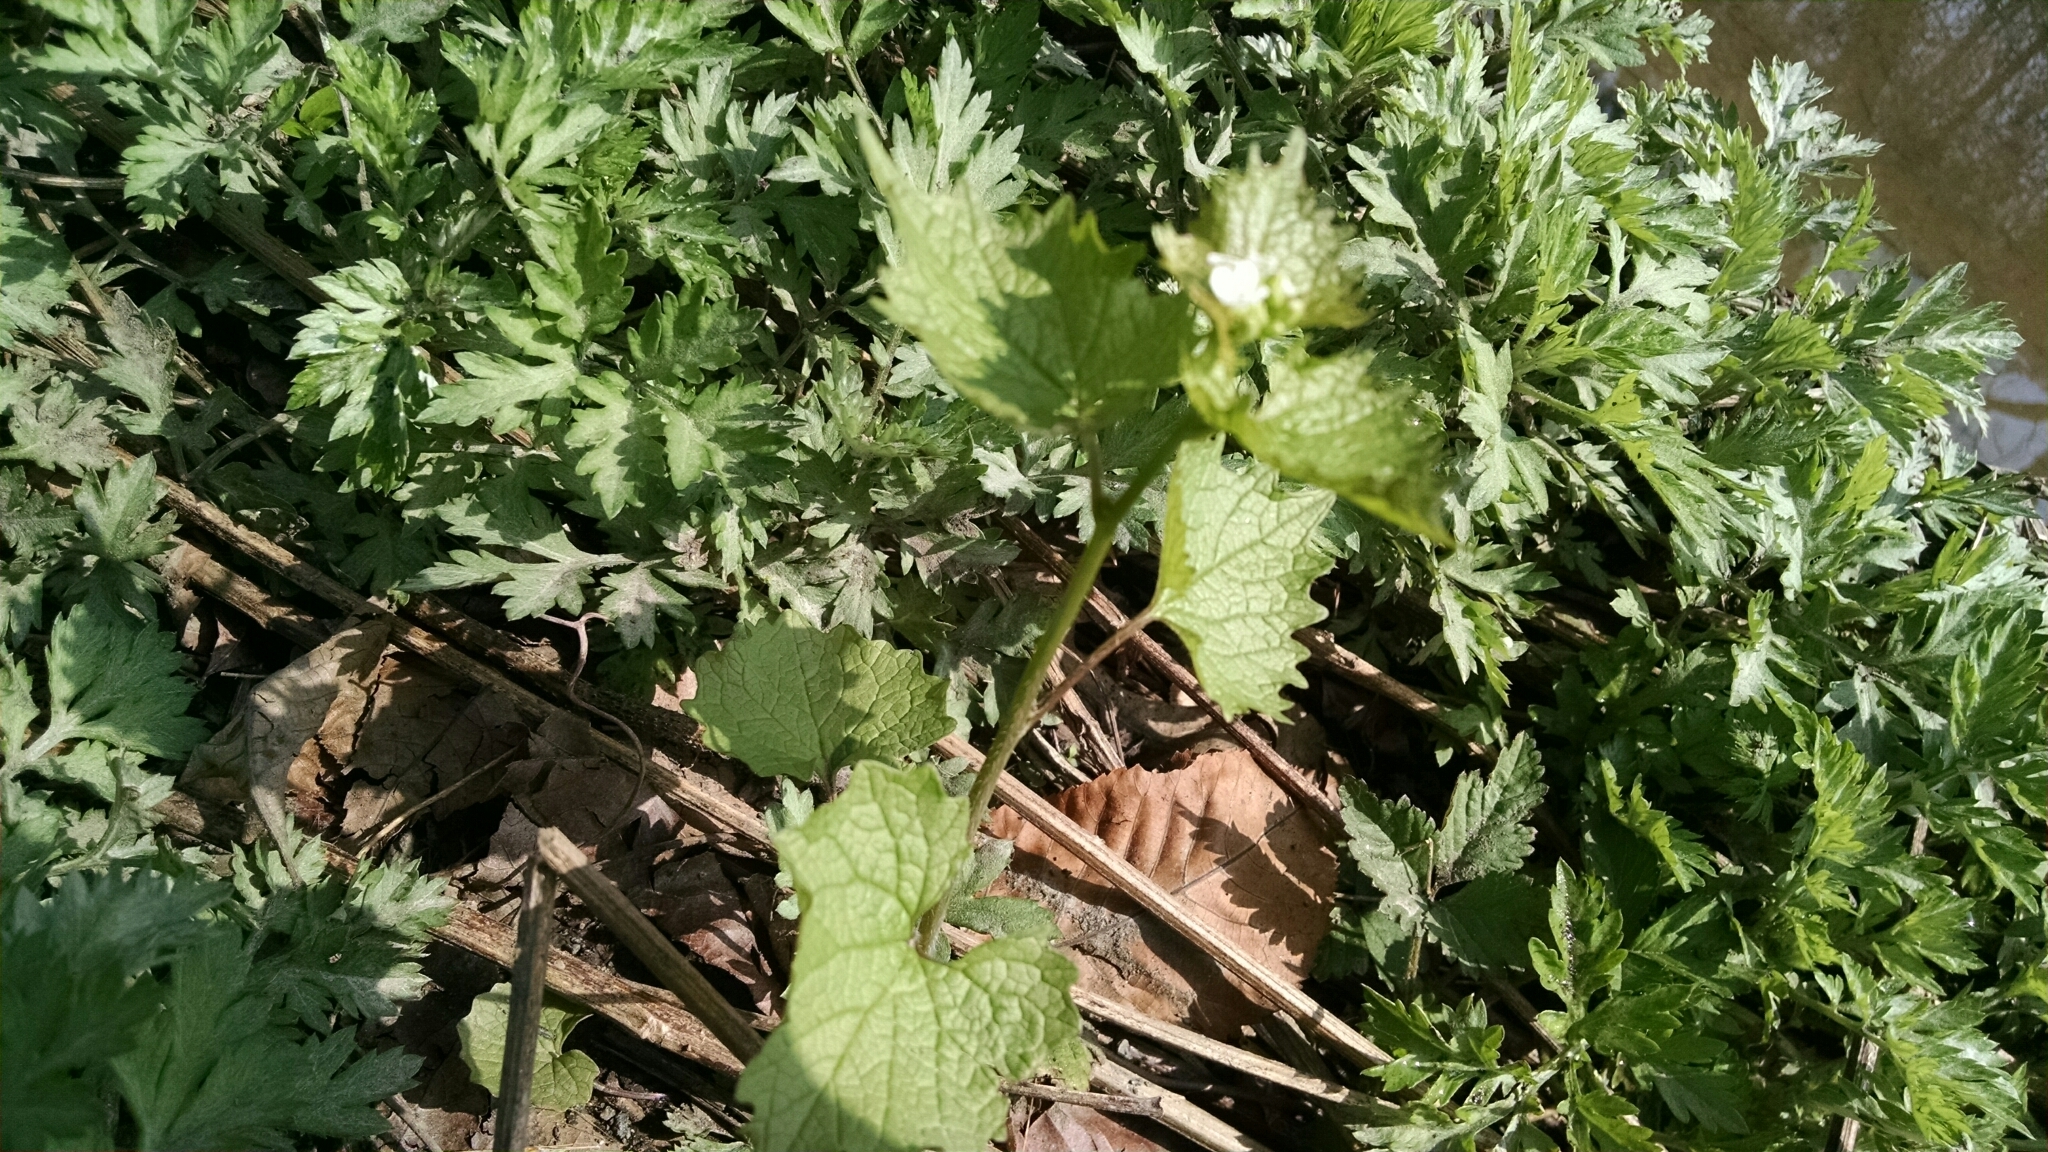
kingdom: Plantae
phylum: Tracheophyta
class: Magnoliopsida
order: Brassicales
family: Brassicaceae
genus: Alliaria
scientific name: Alliaria petiolata
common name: Garlic mustard
